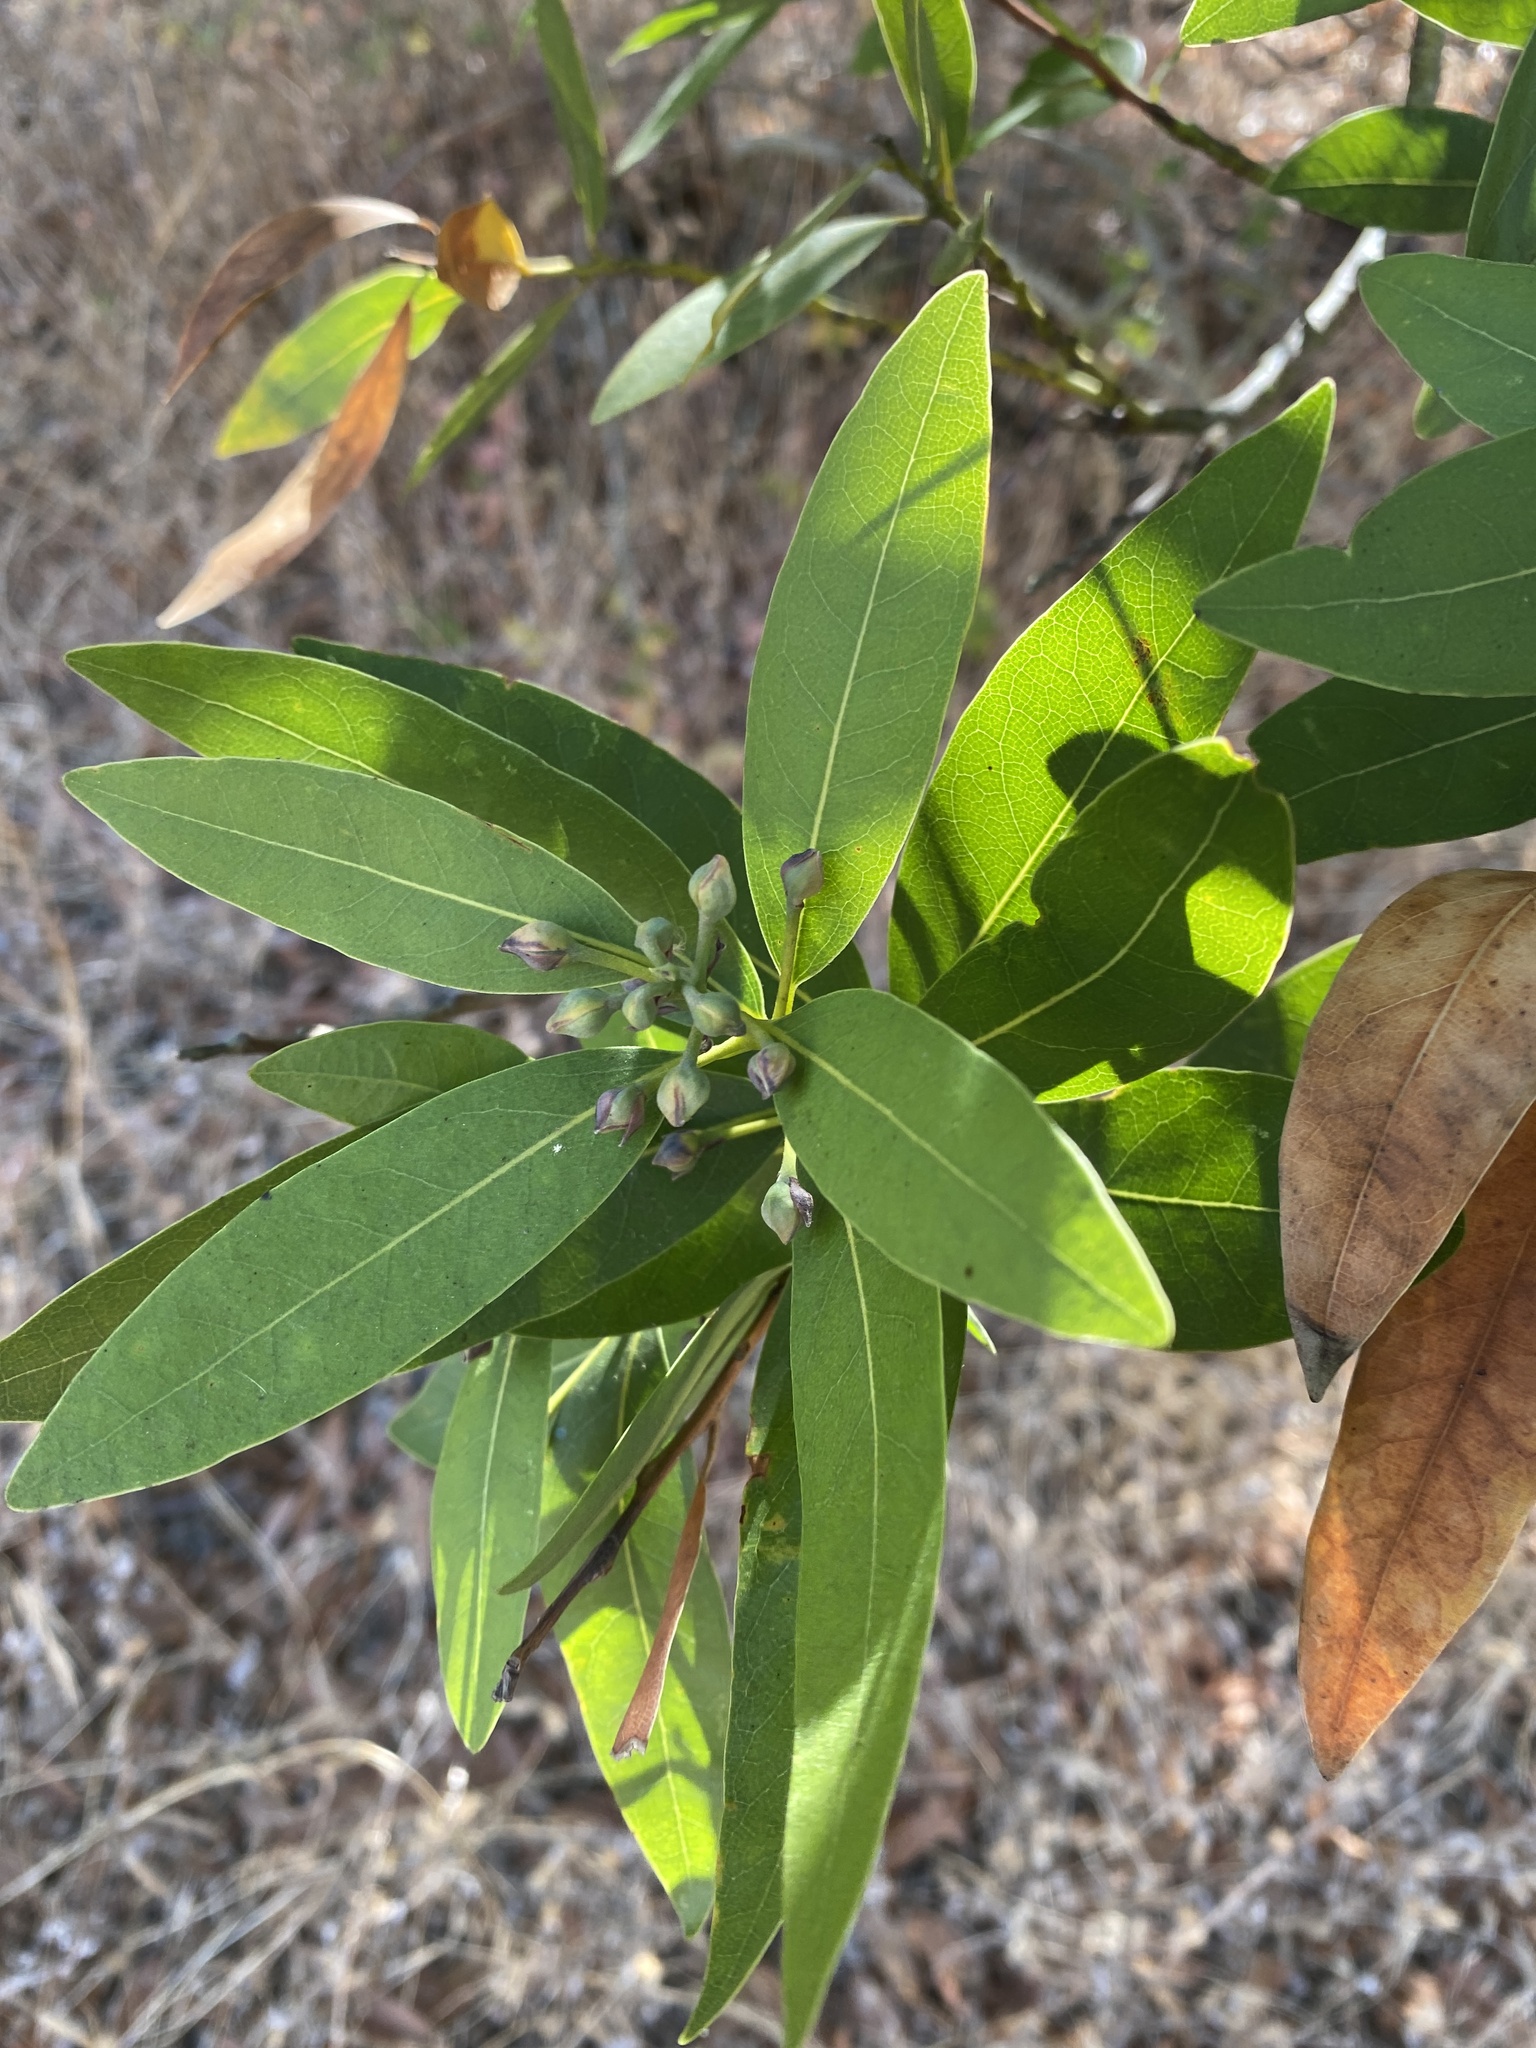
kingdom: Plantae
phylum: Tracheophyta
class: Magnoliopsida
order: Laurales
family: Lauraceae
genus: Umbellularia
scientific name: Umbellularia californica
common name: California bay
